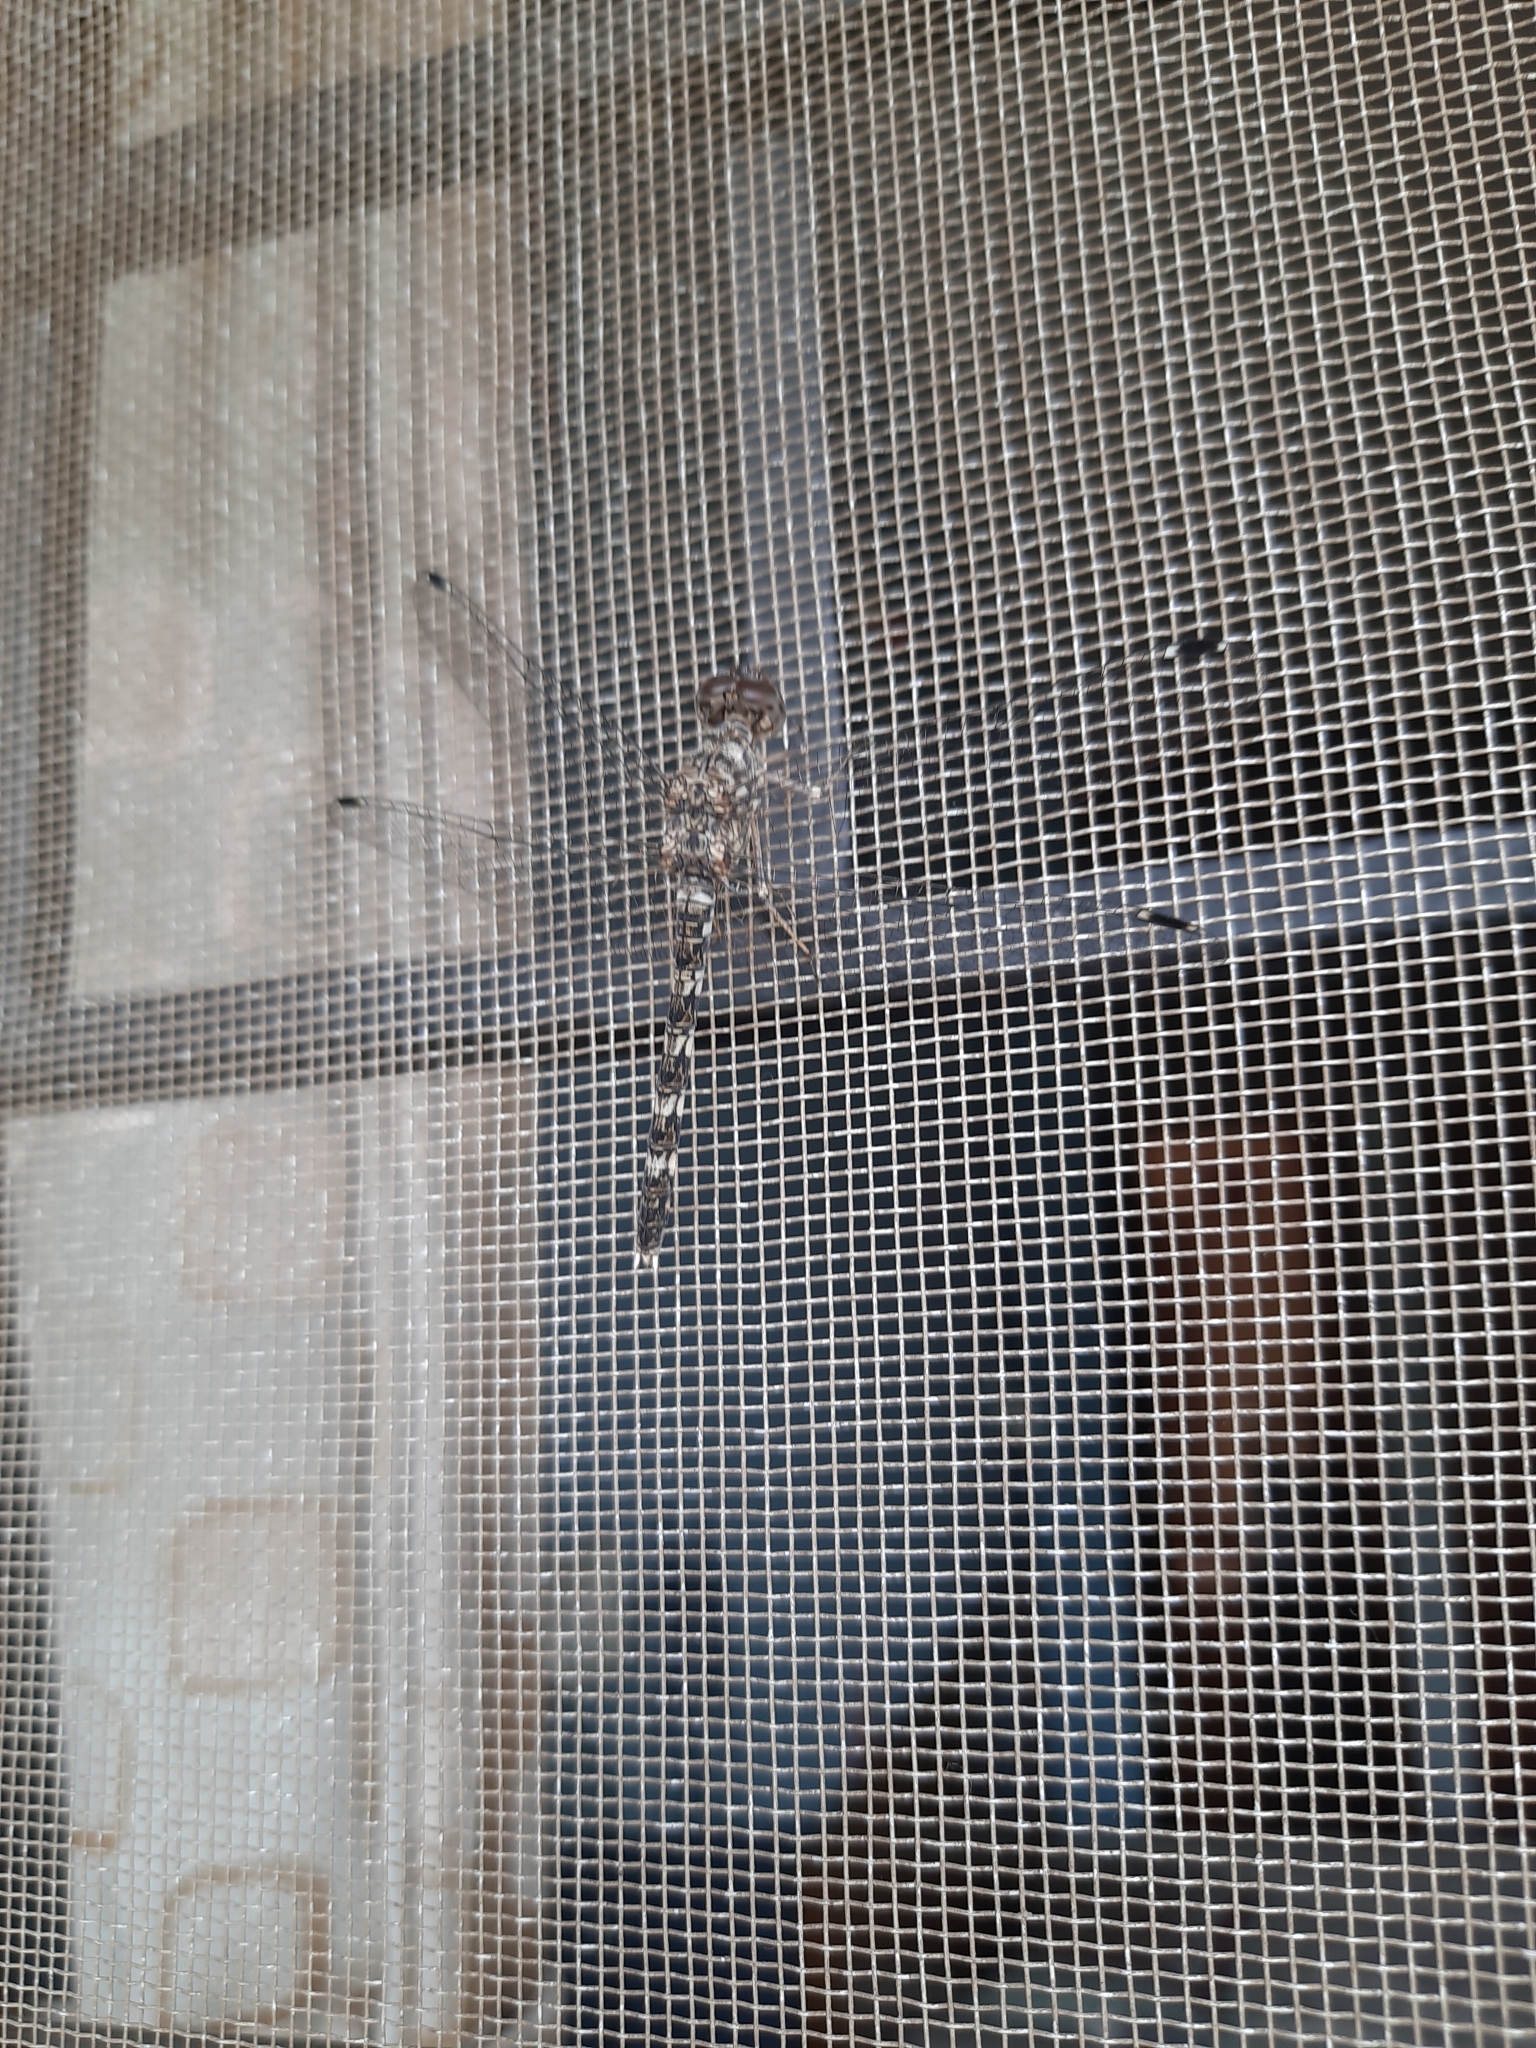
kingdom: Animalia
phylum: Arthropoda
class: Insecta
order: Odonata
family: Libellulidae
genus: Bradinopyga
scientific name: Bradinopyga geminata
